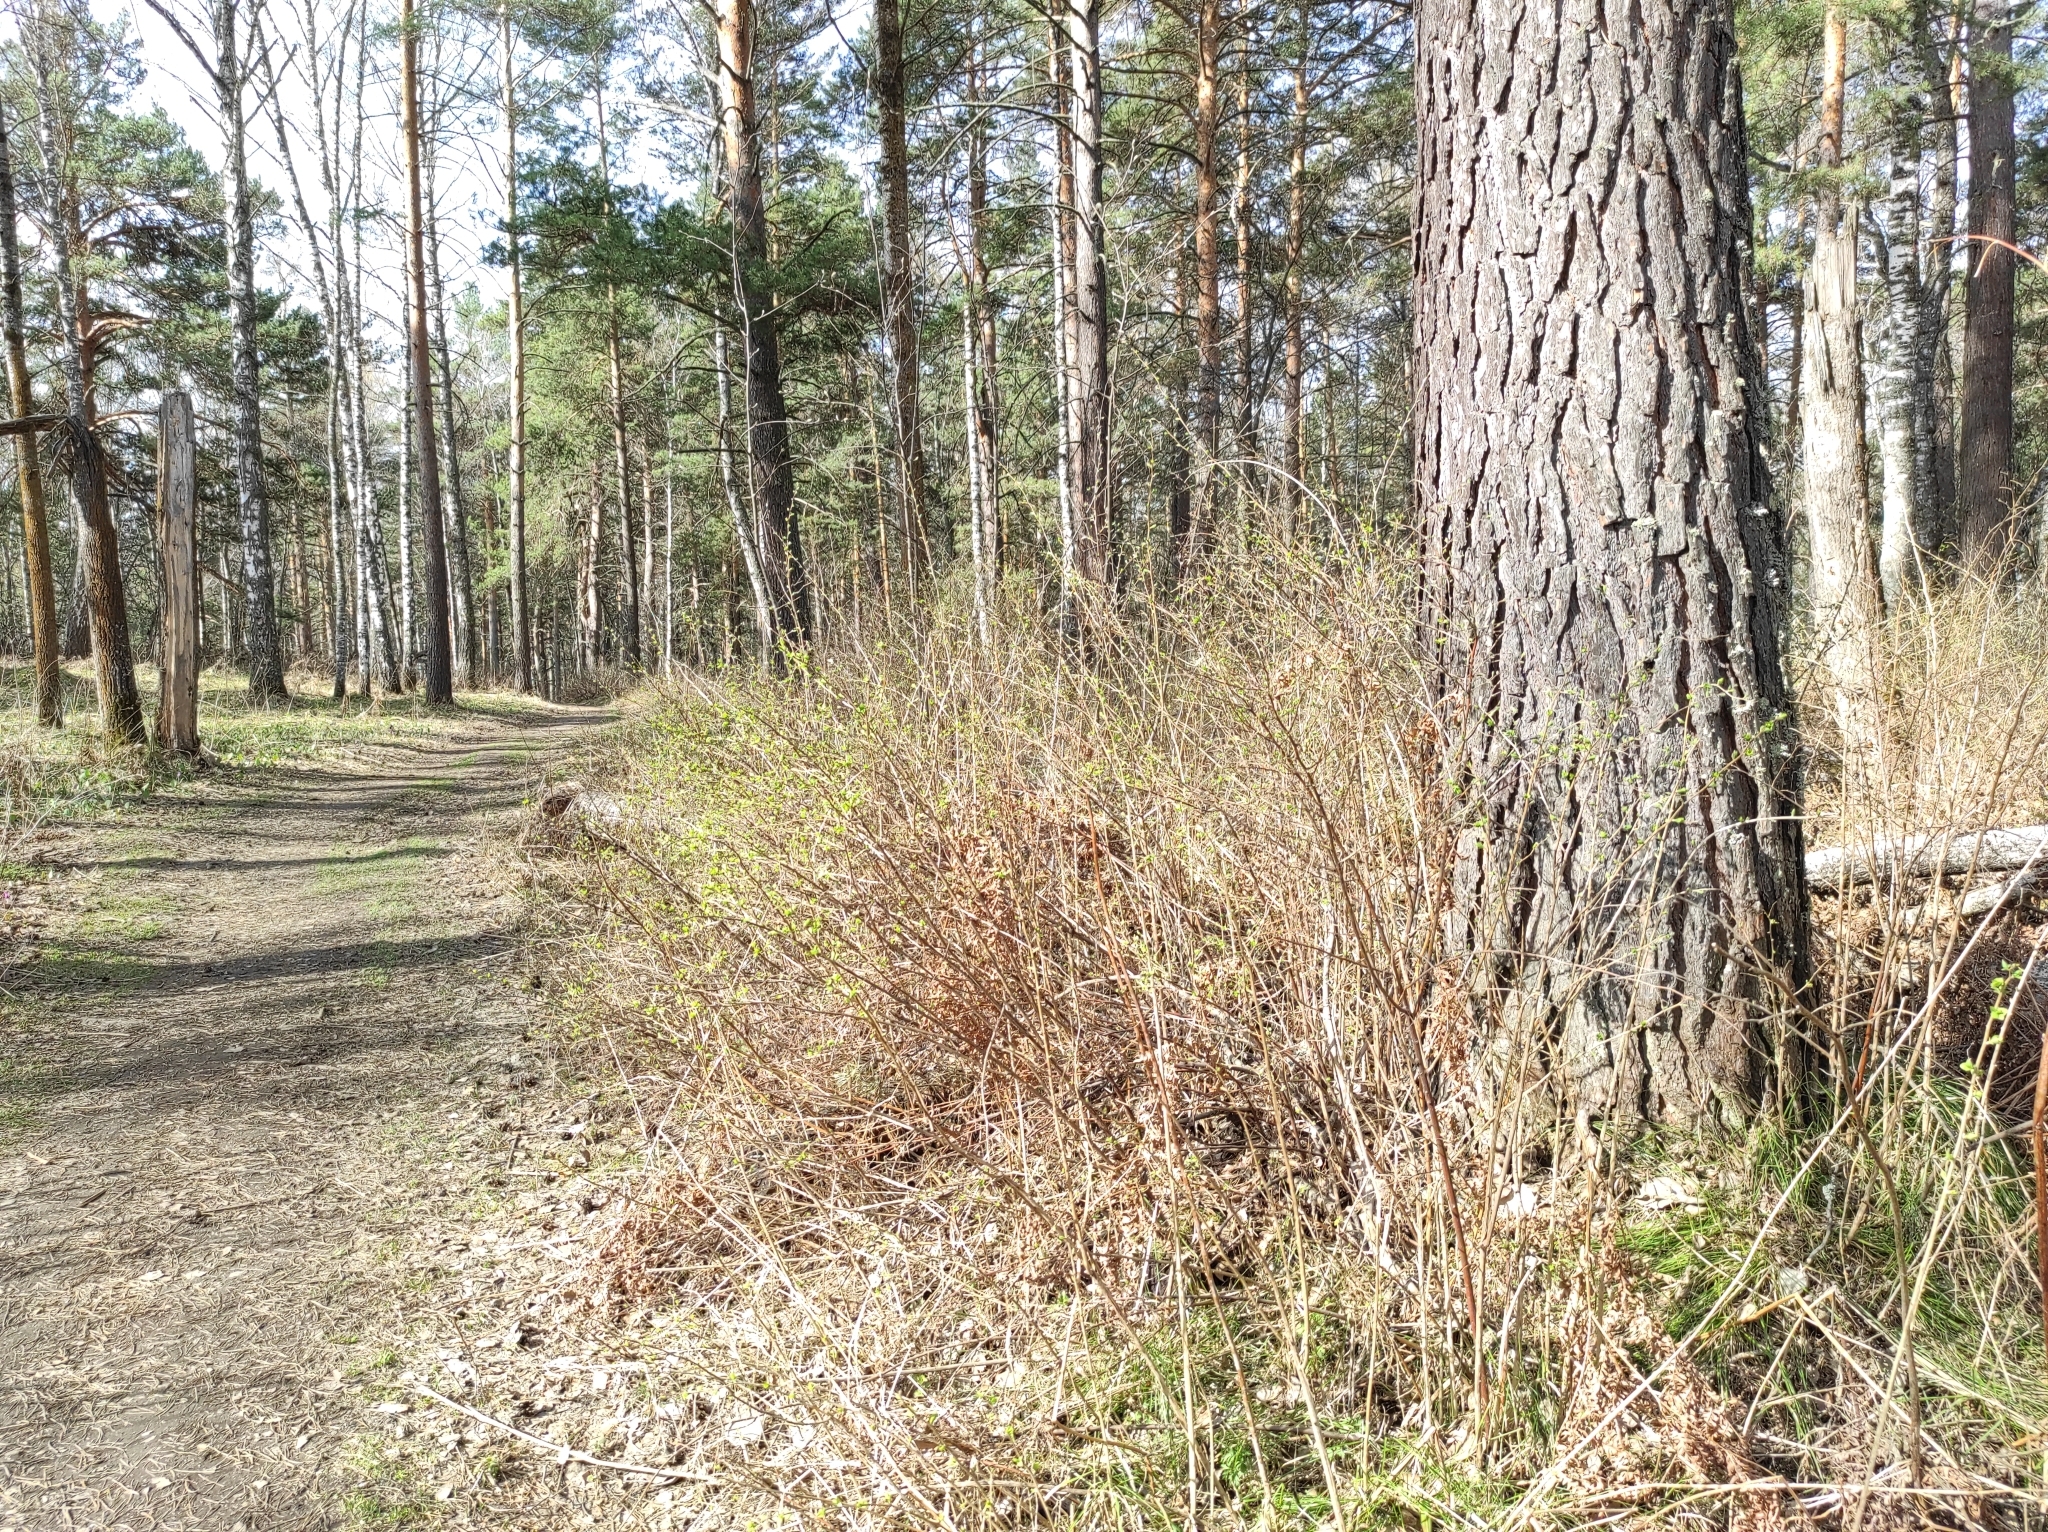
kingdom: Plantae
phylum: Tracheophyta
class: Pinopsida
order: Pinales
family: Pinaceae
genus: Pinus
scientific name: Pinus sylvestris
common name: Scots pine
